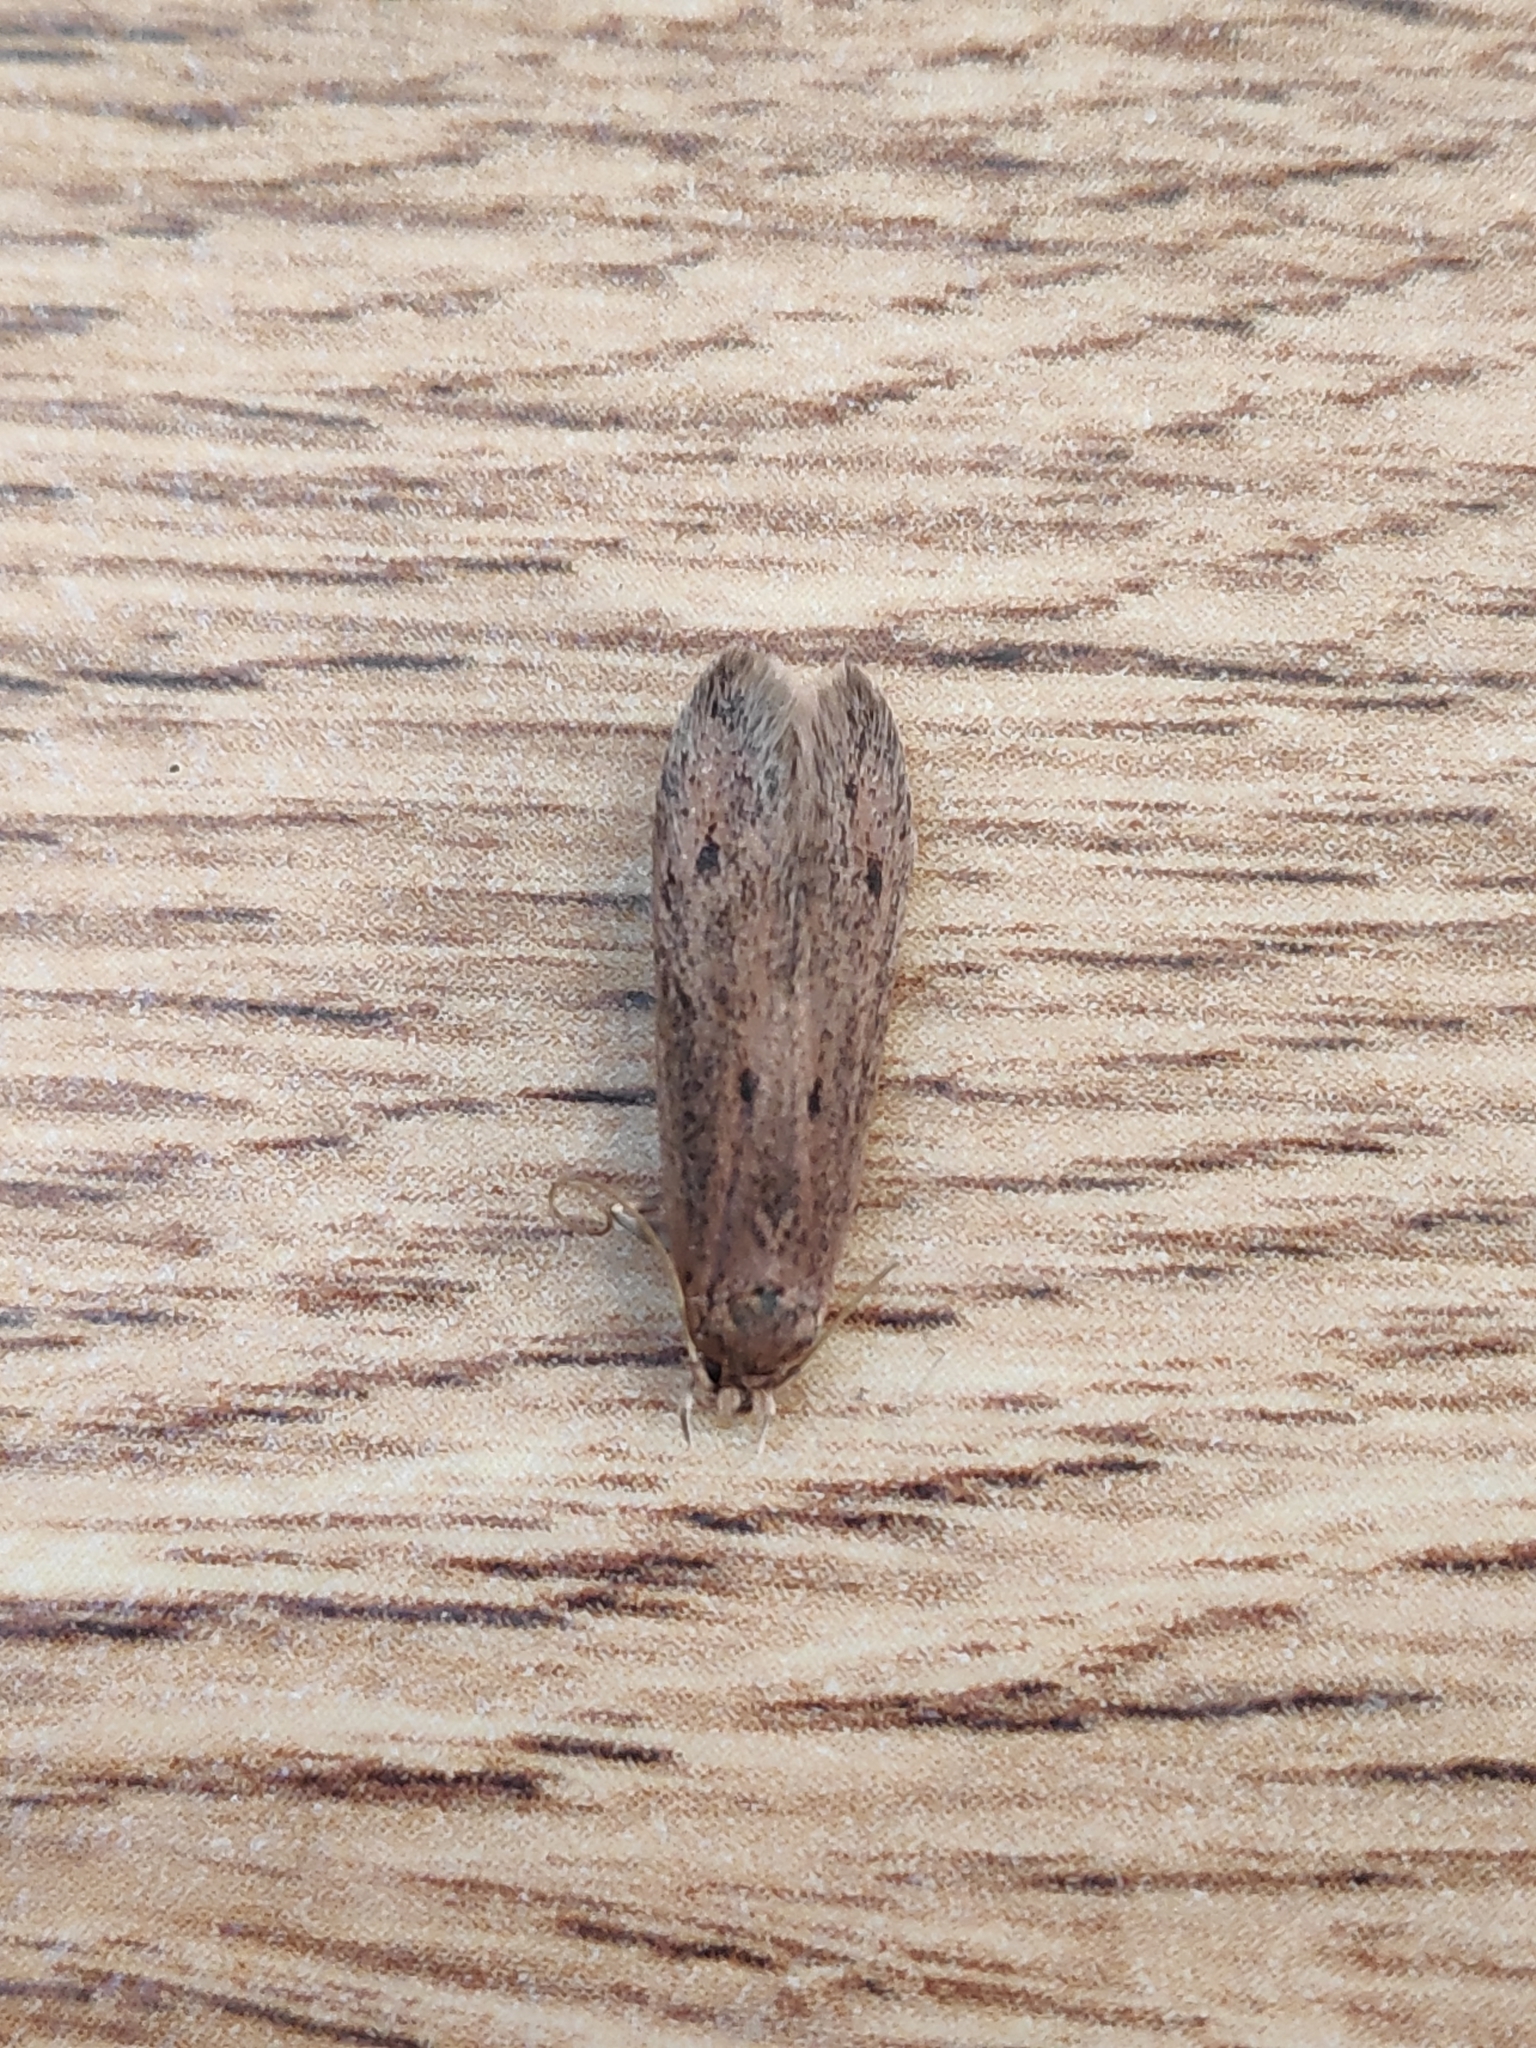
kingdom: Animalia
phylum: Arthropoda
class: Insecta
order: Lepidoptera
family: Oecophoridae
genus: Hofmannophila
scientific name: Hofmannophila pseudospretella
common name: Brown house moth
